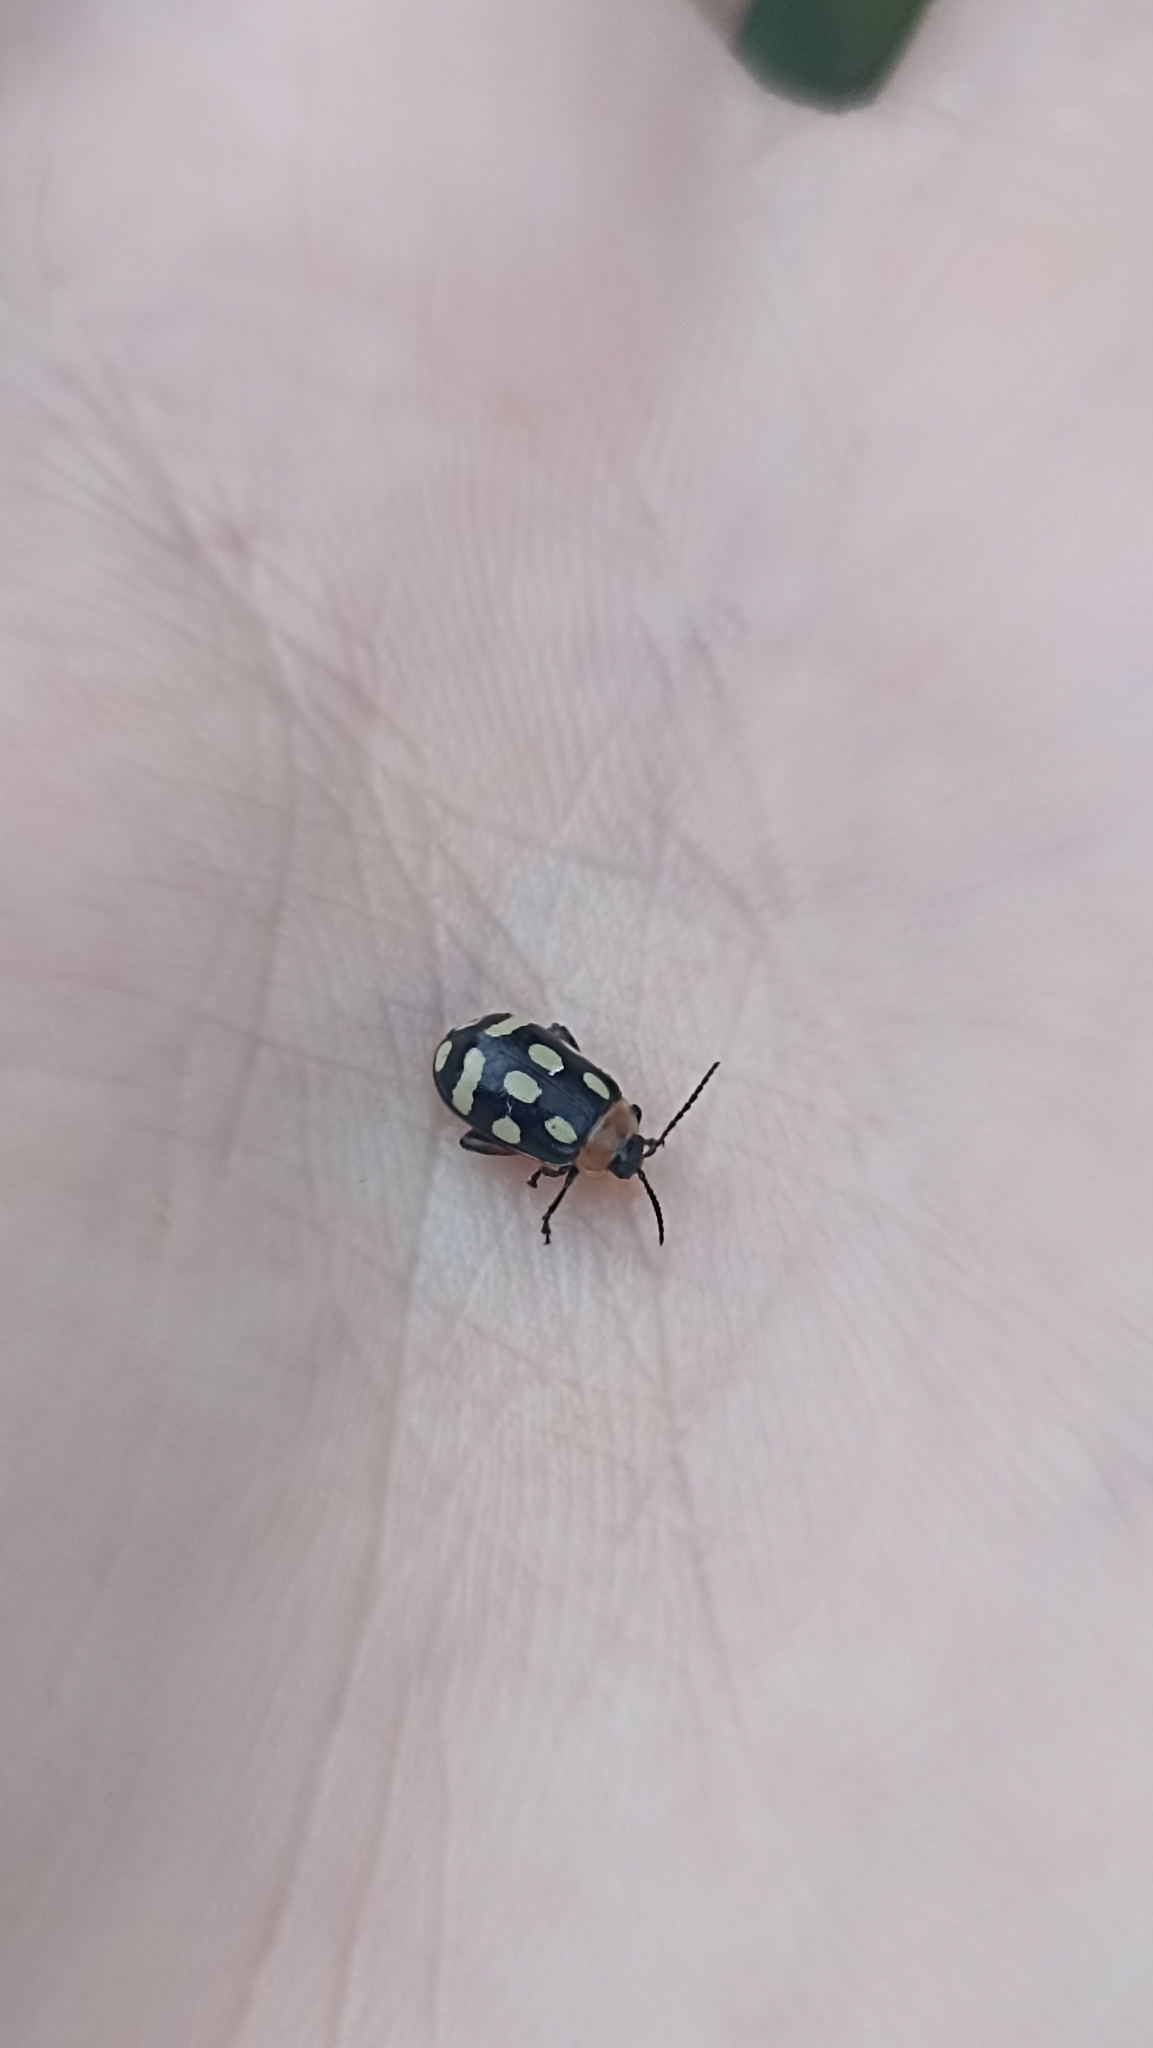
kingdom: Animalia
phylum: Arthropoda
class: Insecta
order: Coleoptera
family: Chrysomelidae
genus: Alagoasa
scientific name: Alagoasa
